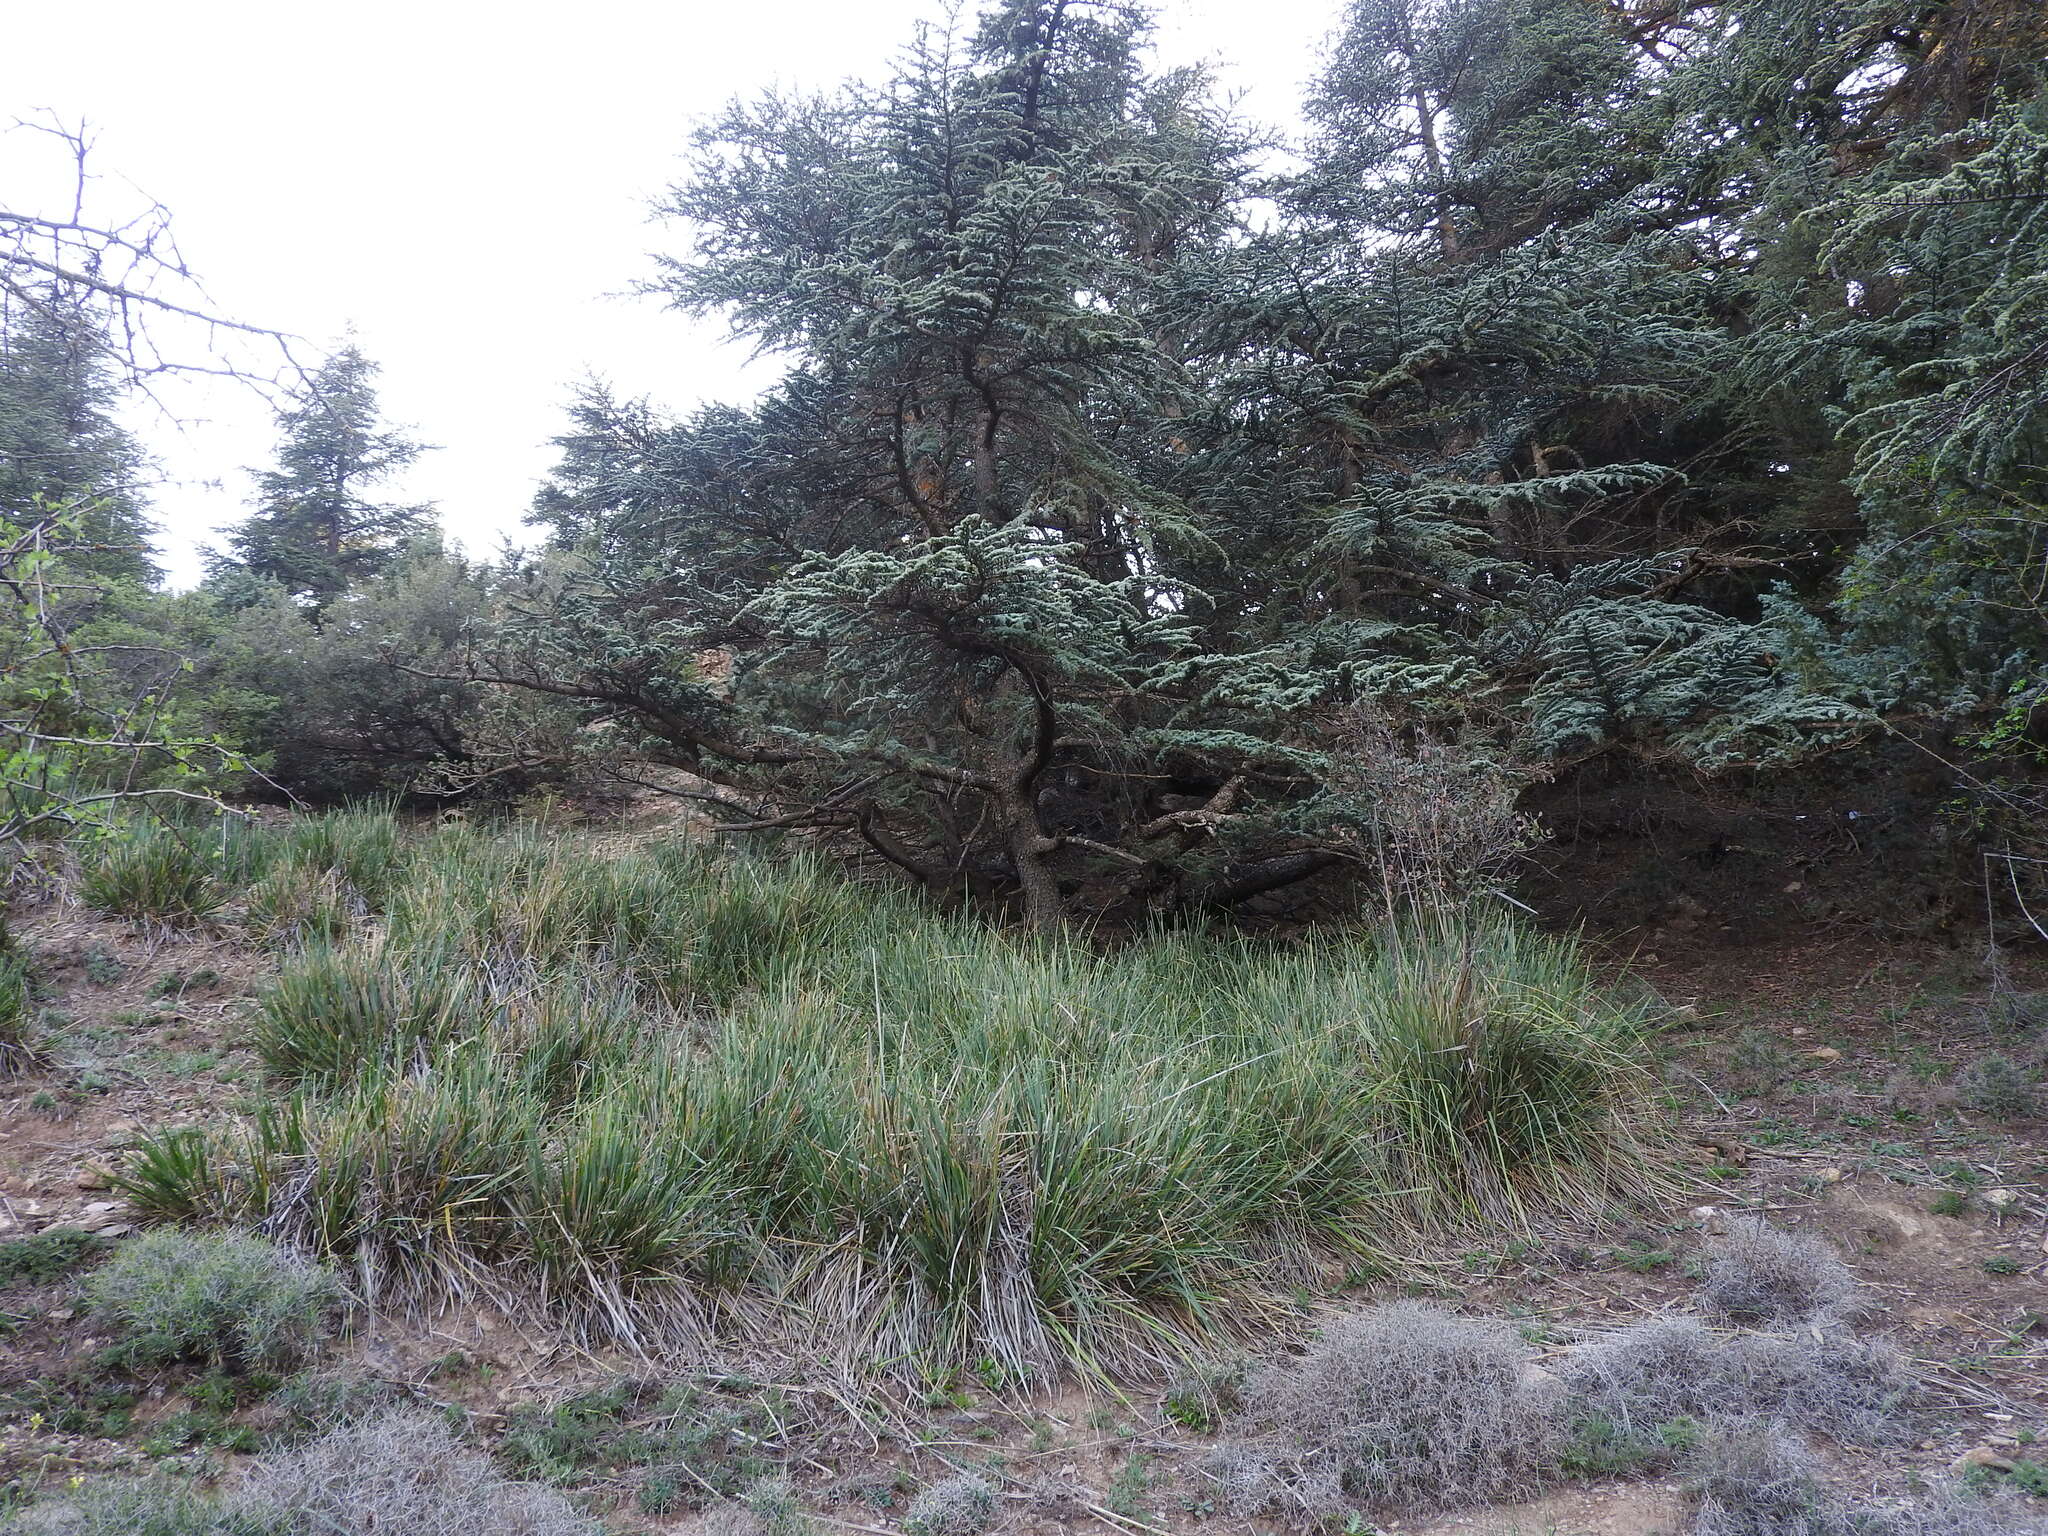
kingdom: Plantae
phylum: Tracheophyta
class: Liliopsida
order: Poales
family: Poaceae
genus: Ampelodesmos
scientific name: Ampelodesmos mauritanicus
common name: Mauritanian grass
